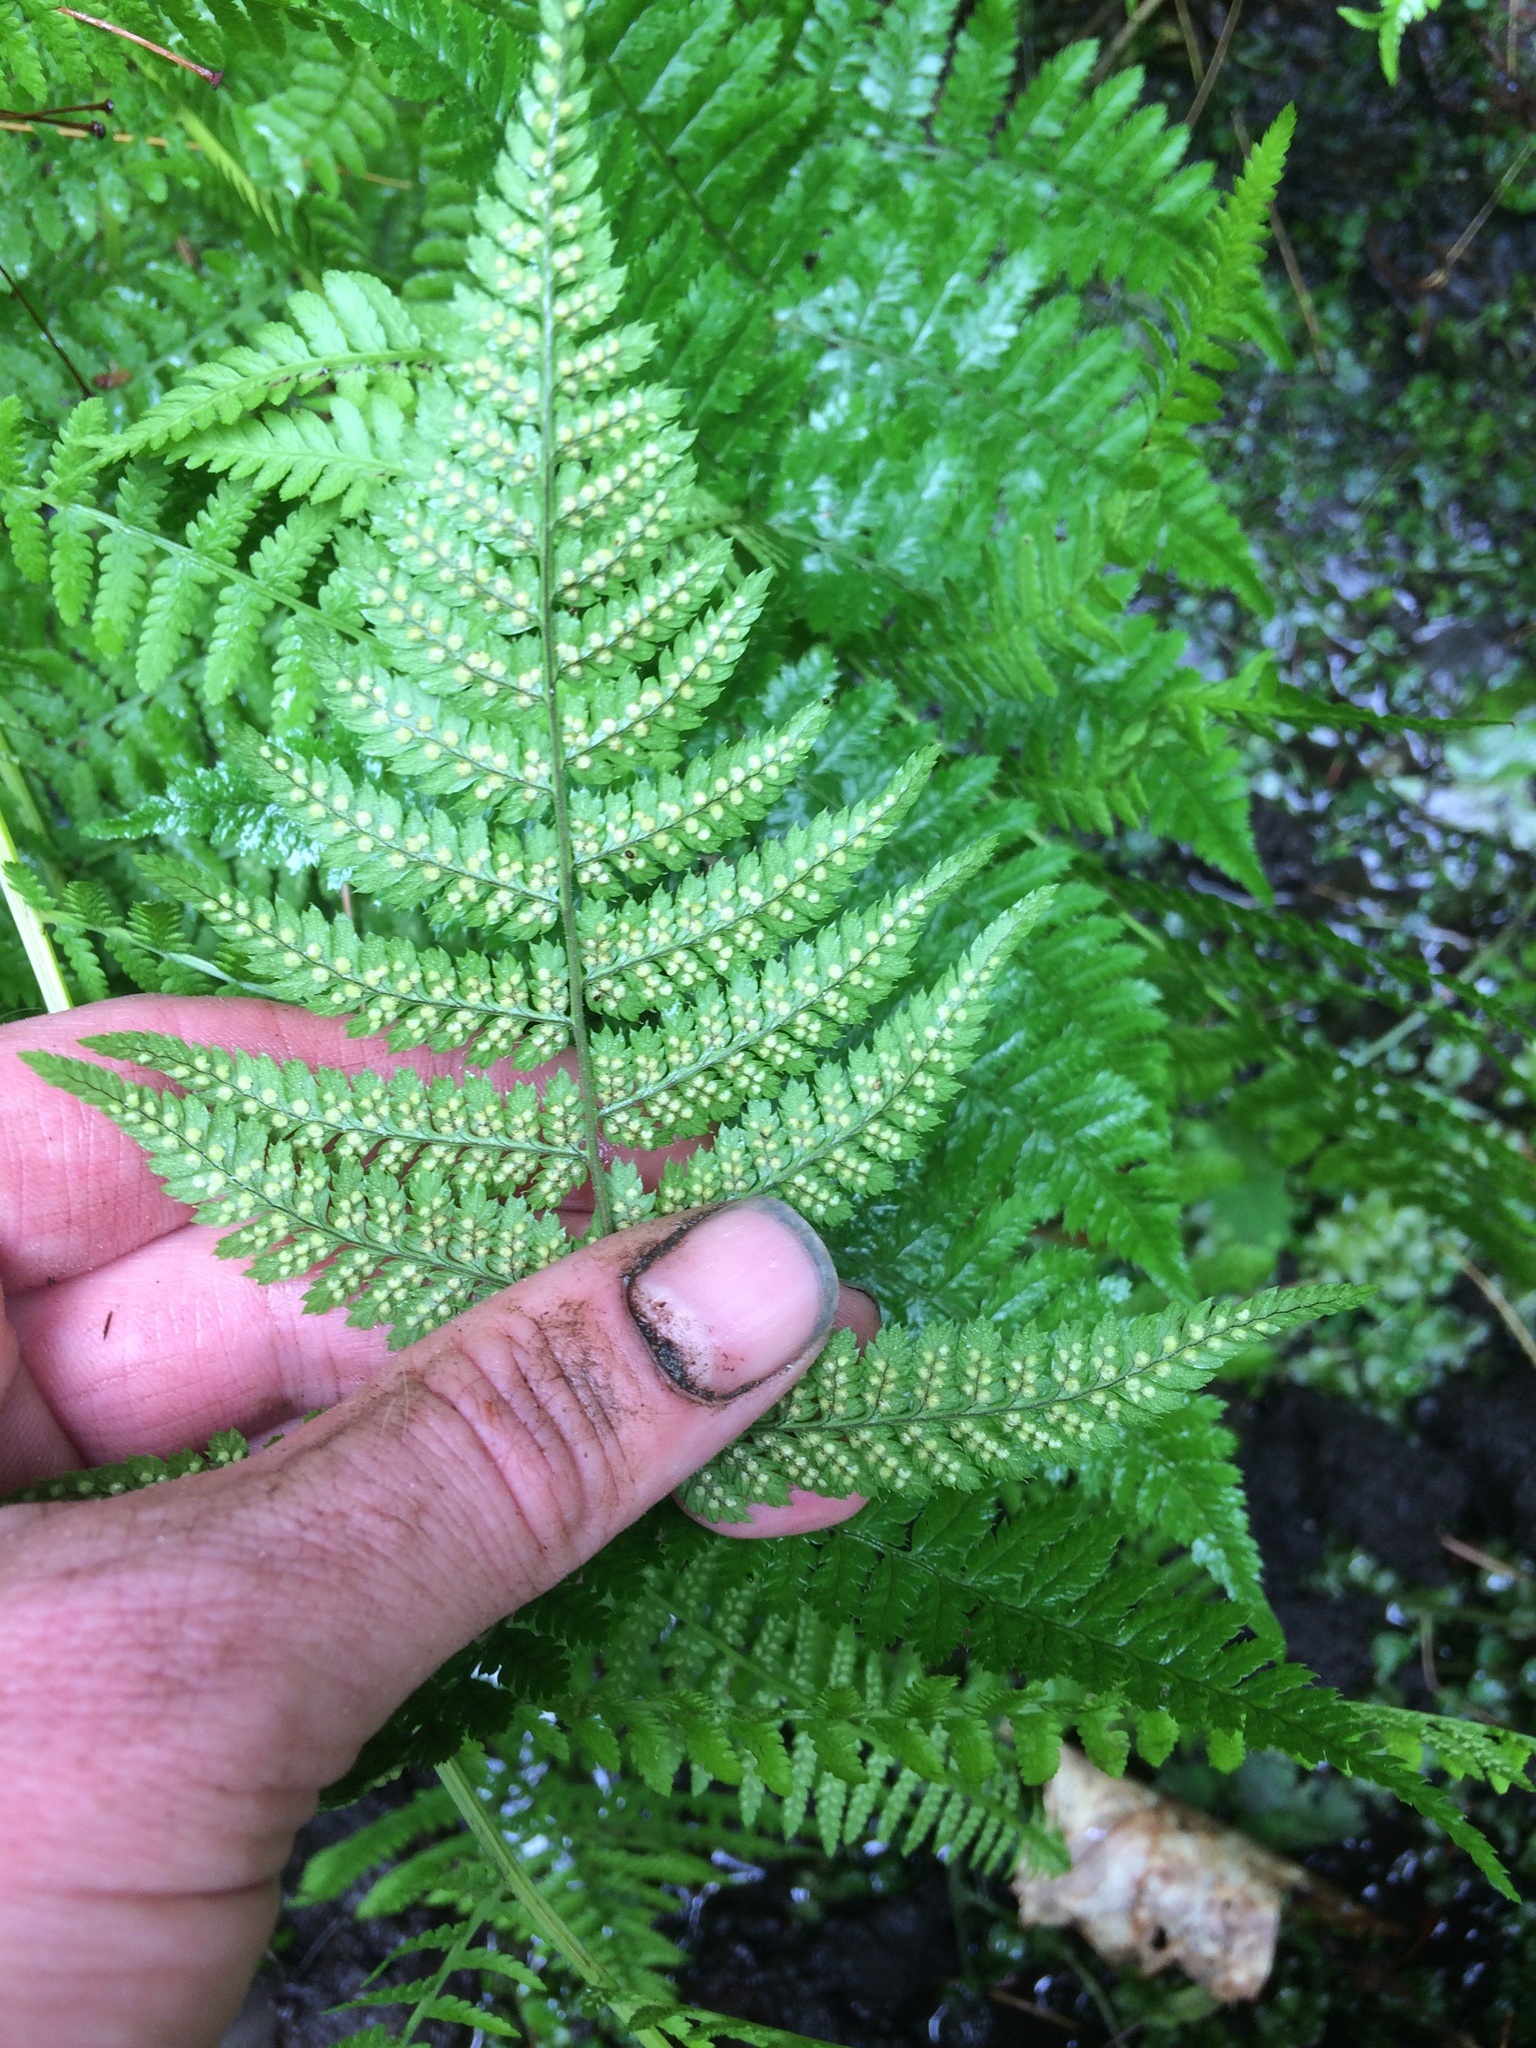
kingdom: Plantae
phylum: Tracheophyta
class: Polypodiopsida
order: Polypodiales
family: Dryopteridaceae
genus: Dryopteris
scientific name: Dryopteris carthusiana
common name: Narrow buckler-fern
